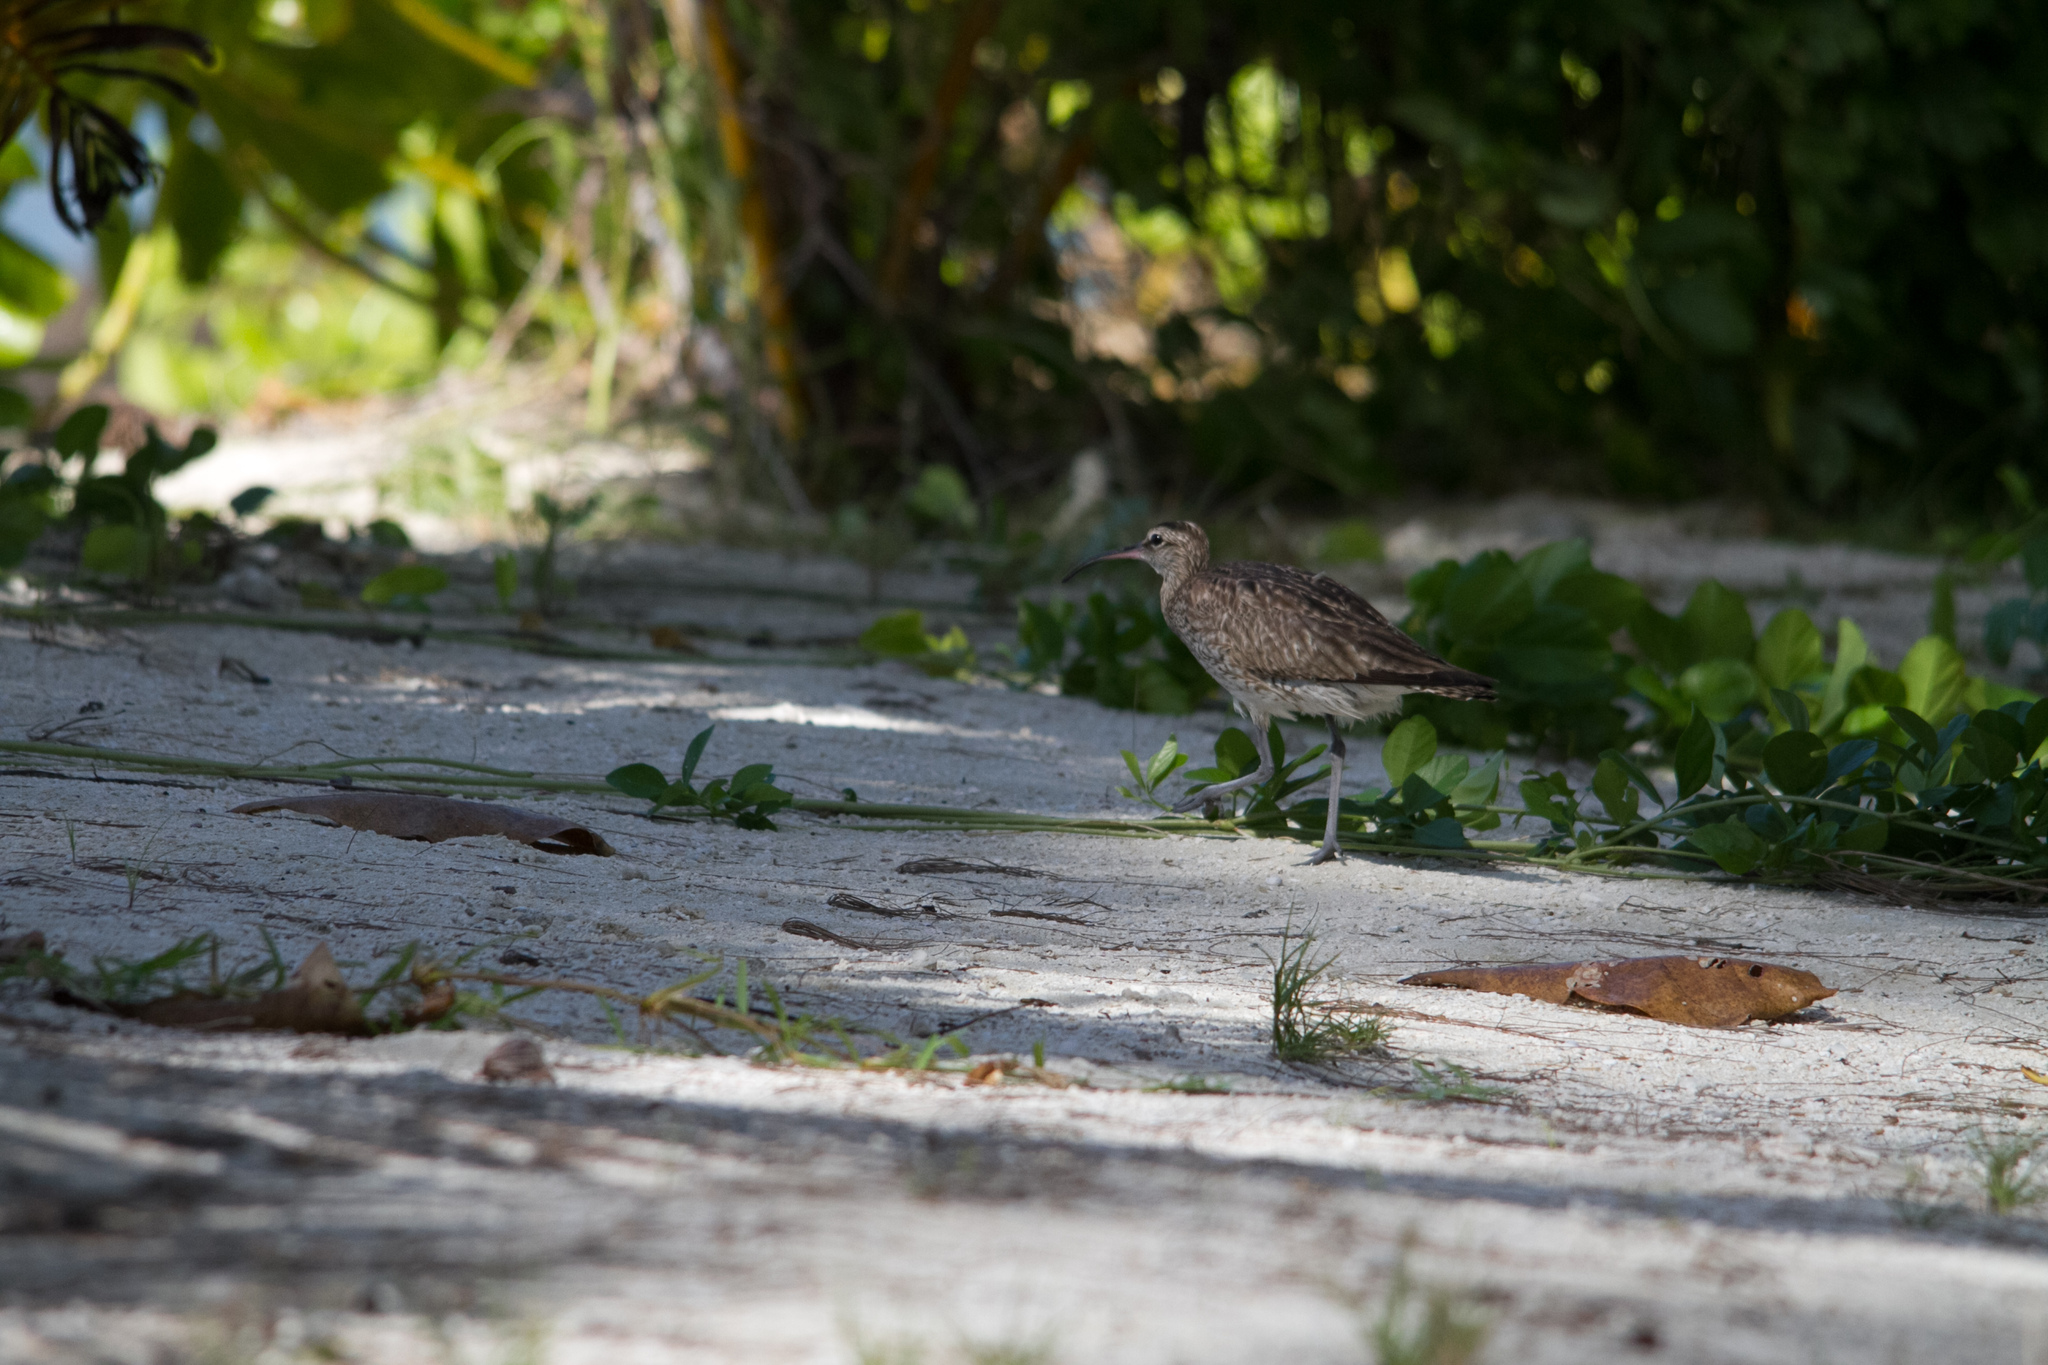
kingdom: Animalia
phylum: Chordata
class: Aves
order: Charadriiformes
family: Scolopacidae
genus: Numenius
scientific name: Numenius phaeopus
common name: Whimbrel
